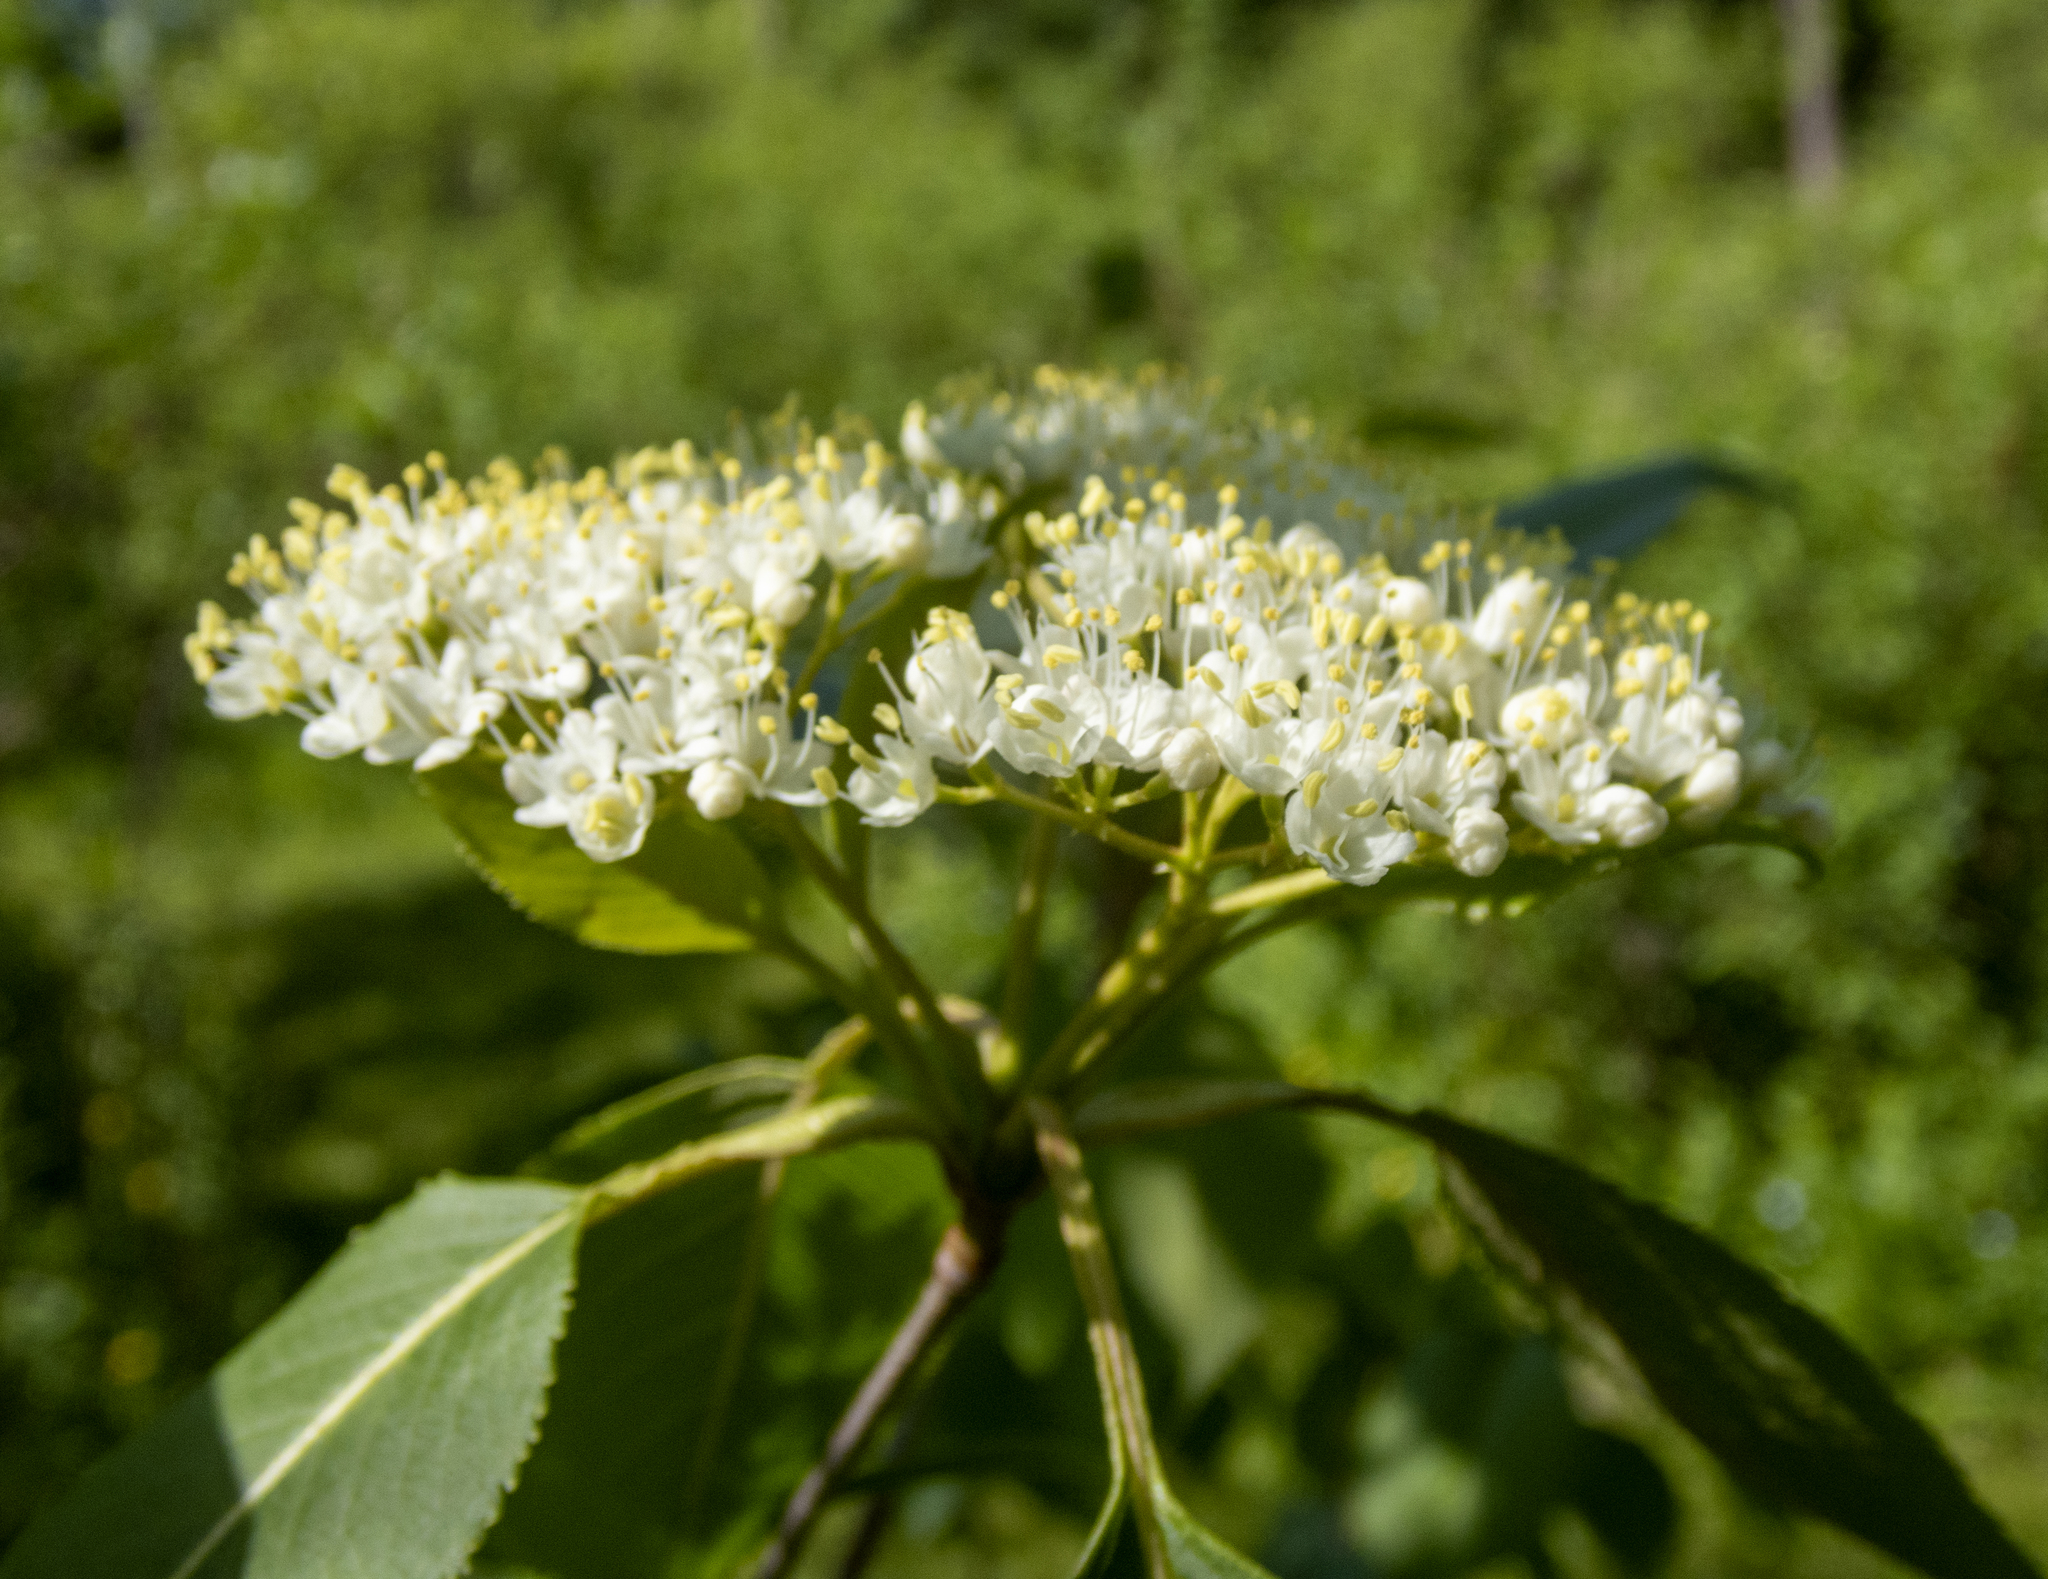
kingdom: Plantae
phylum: Tracheophyta
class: Magnoliopsida
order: Dipsacales
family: Viburnaceae
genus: Viburnum
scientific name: Viburnum lentago
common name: Black haw
